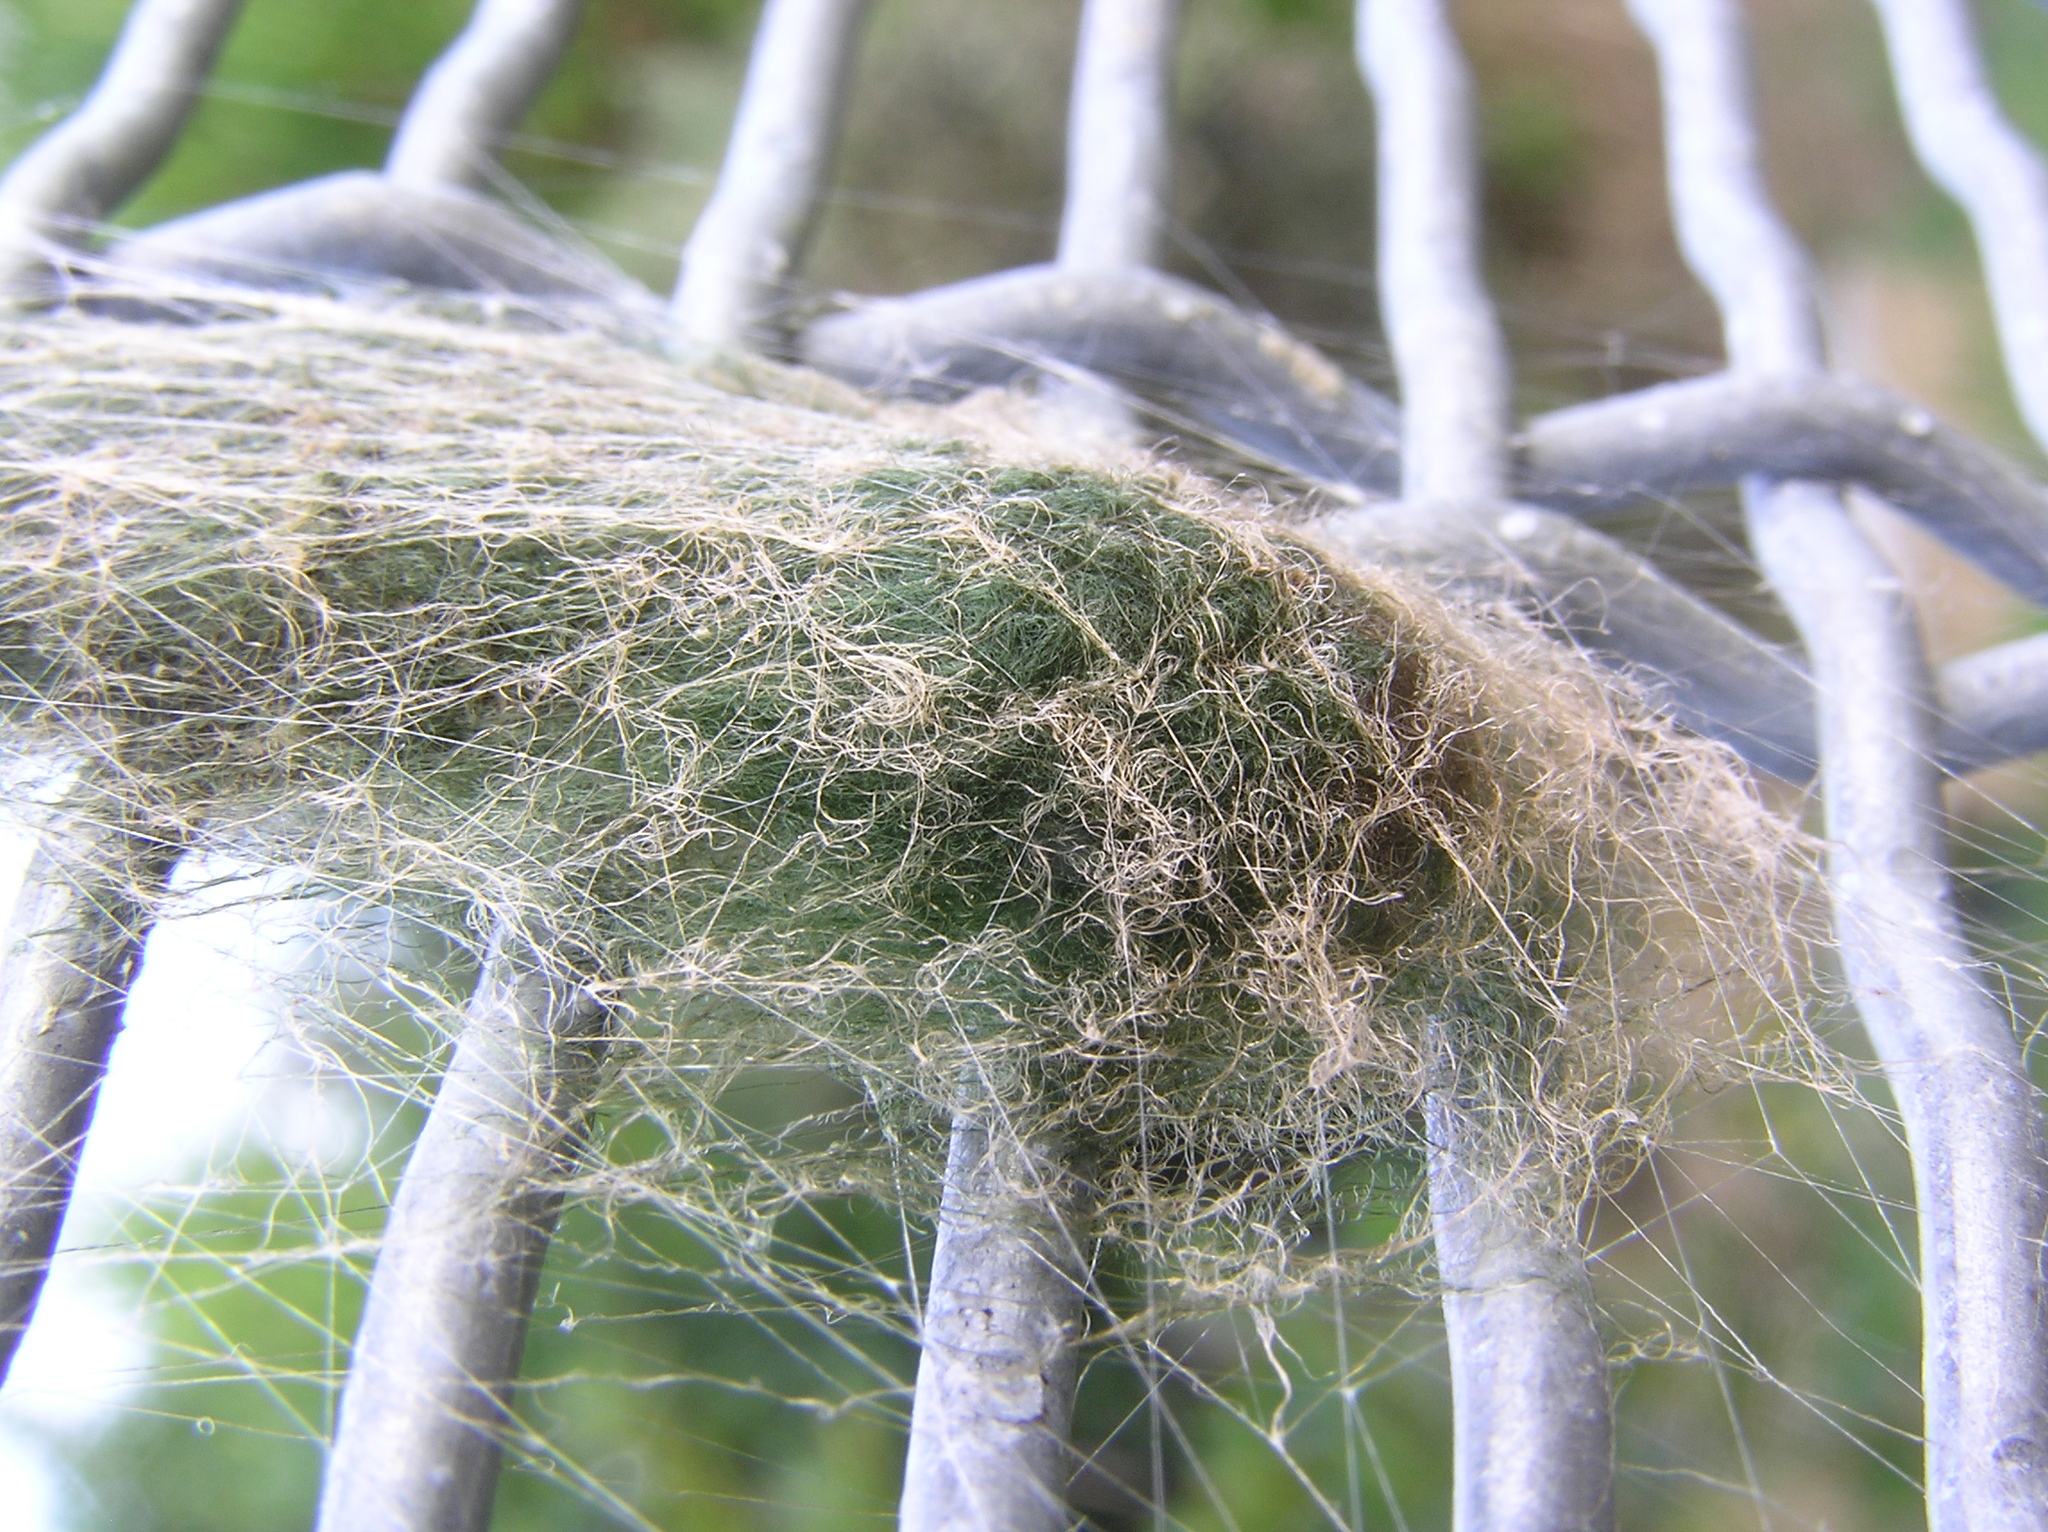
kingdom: Animalia
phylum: Arthropoda
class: Arachnida
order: Araneae
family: Araneidae
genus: Eriophora
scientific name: Eriophora pustulosa
